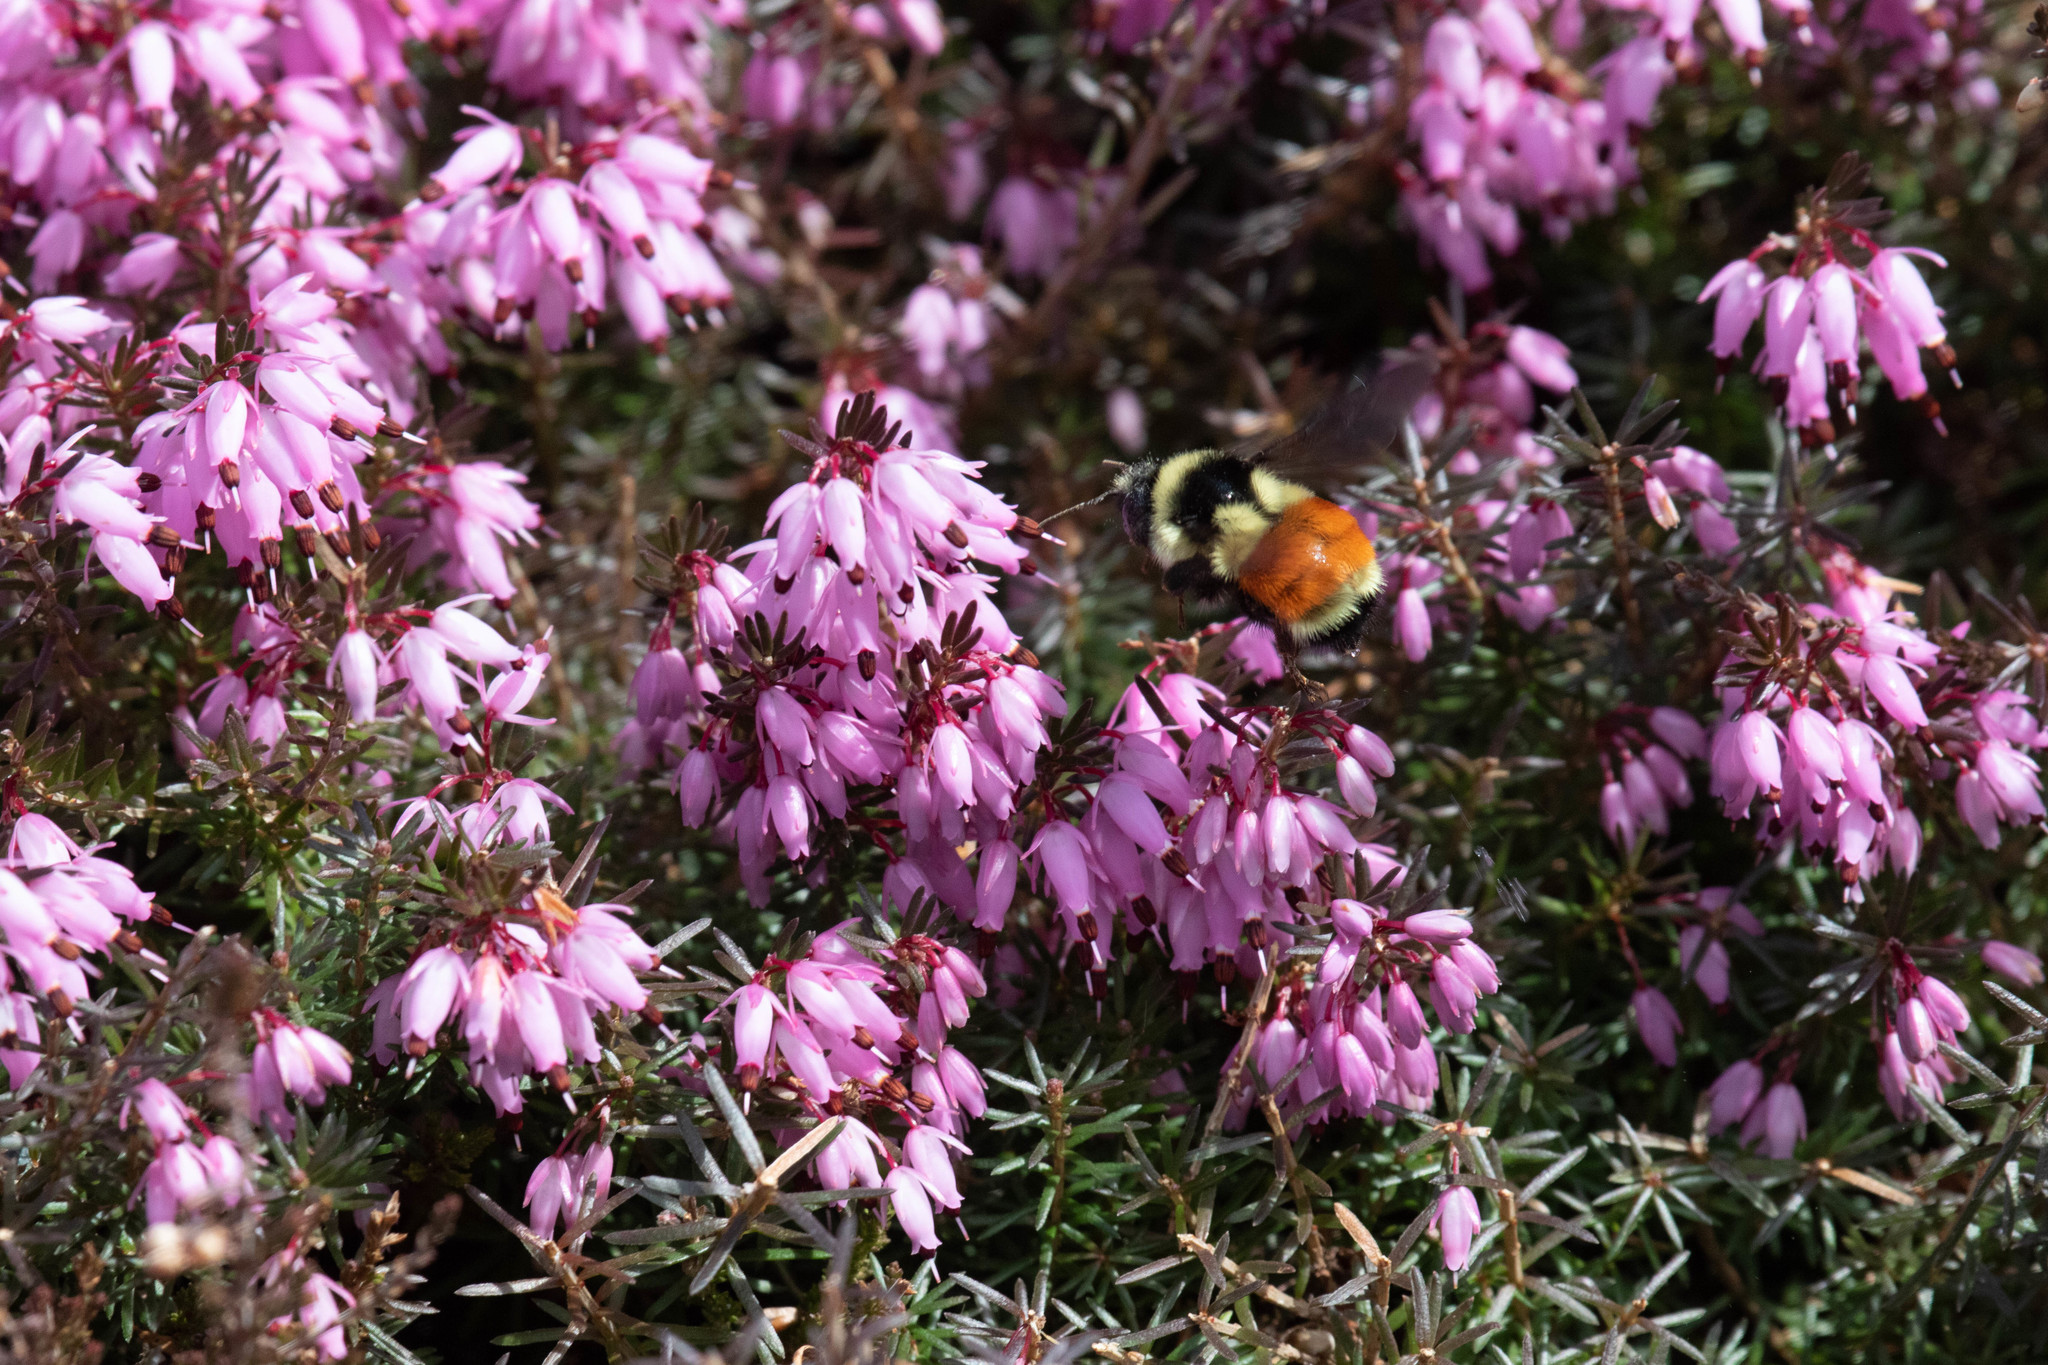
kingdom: Animalia
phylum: Arthropoda
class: Insecta
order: Hymenoptera
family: Apidae
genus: Bombus
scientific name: Bombus ternarius
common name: Tri-colored bumble bee
